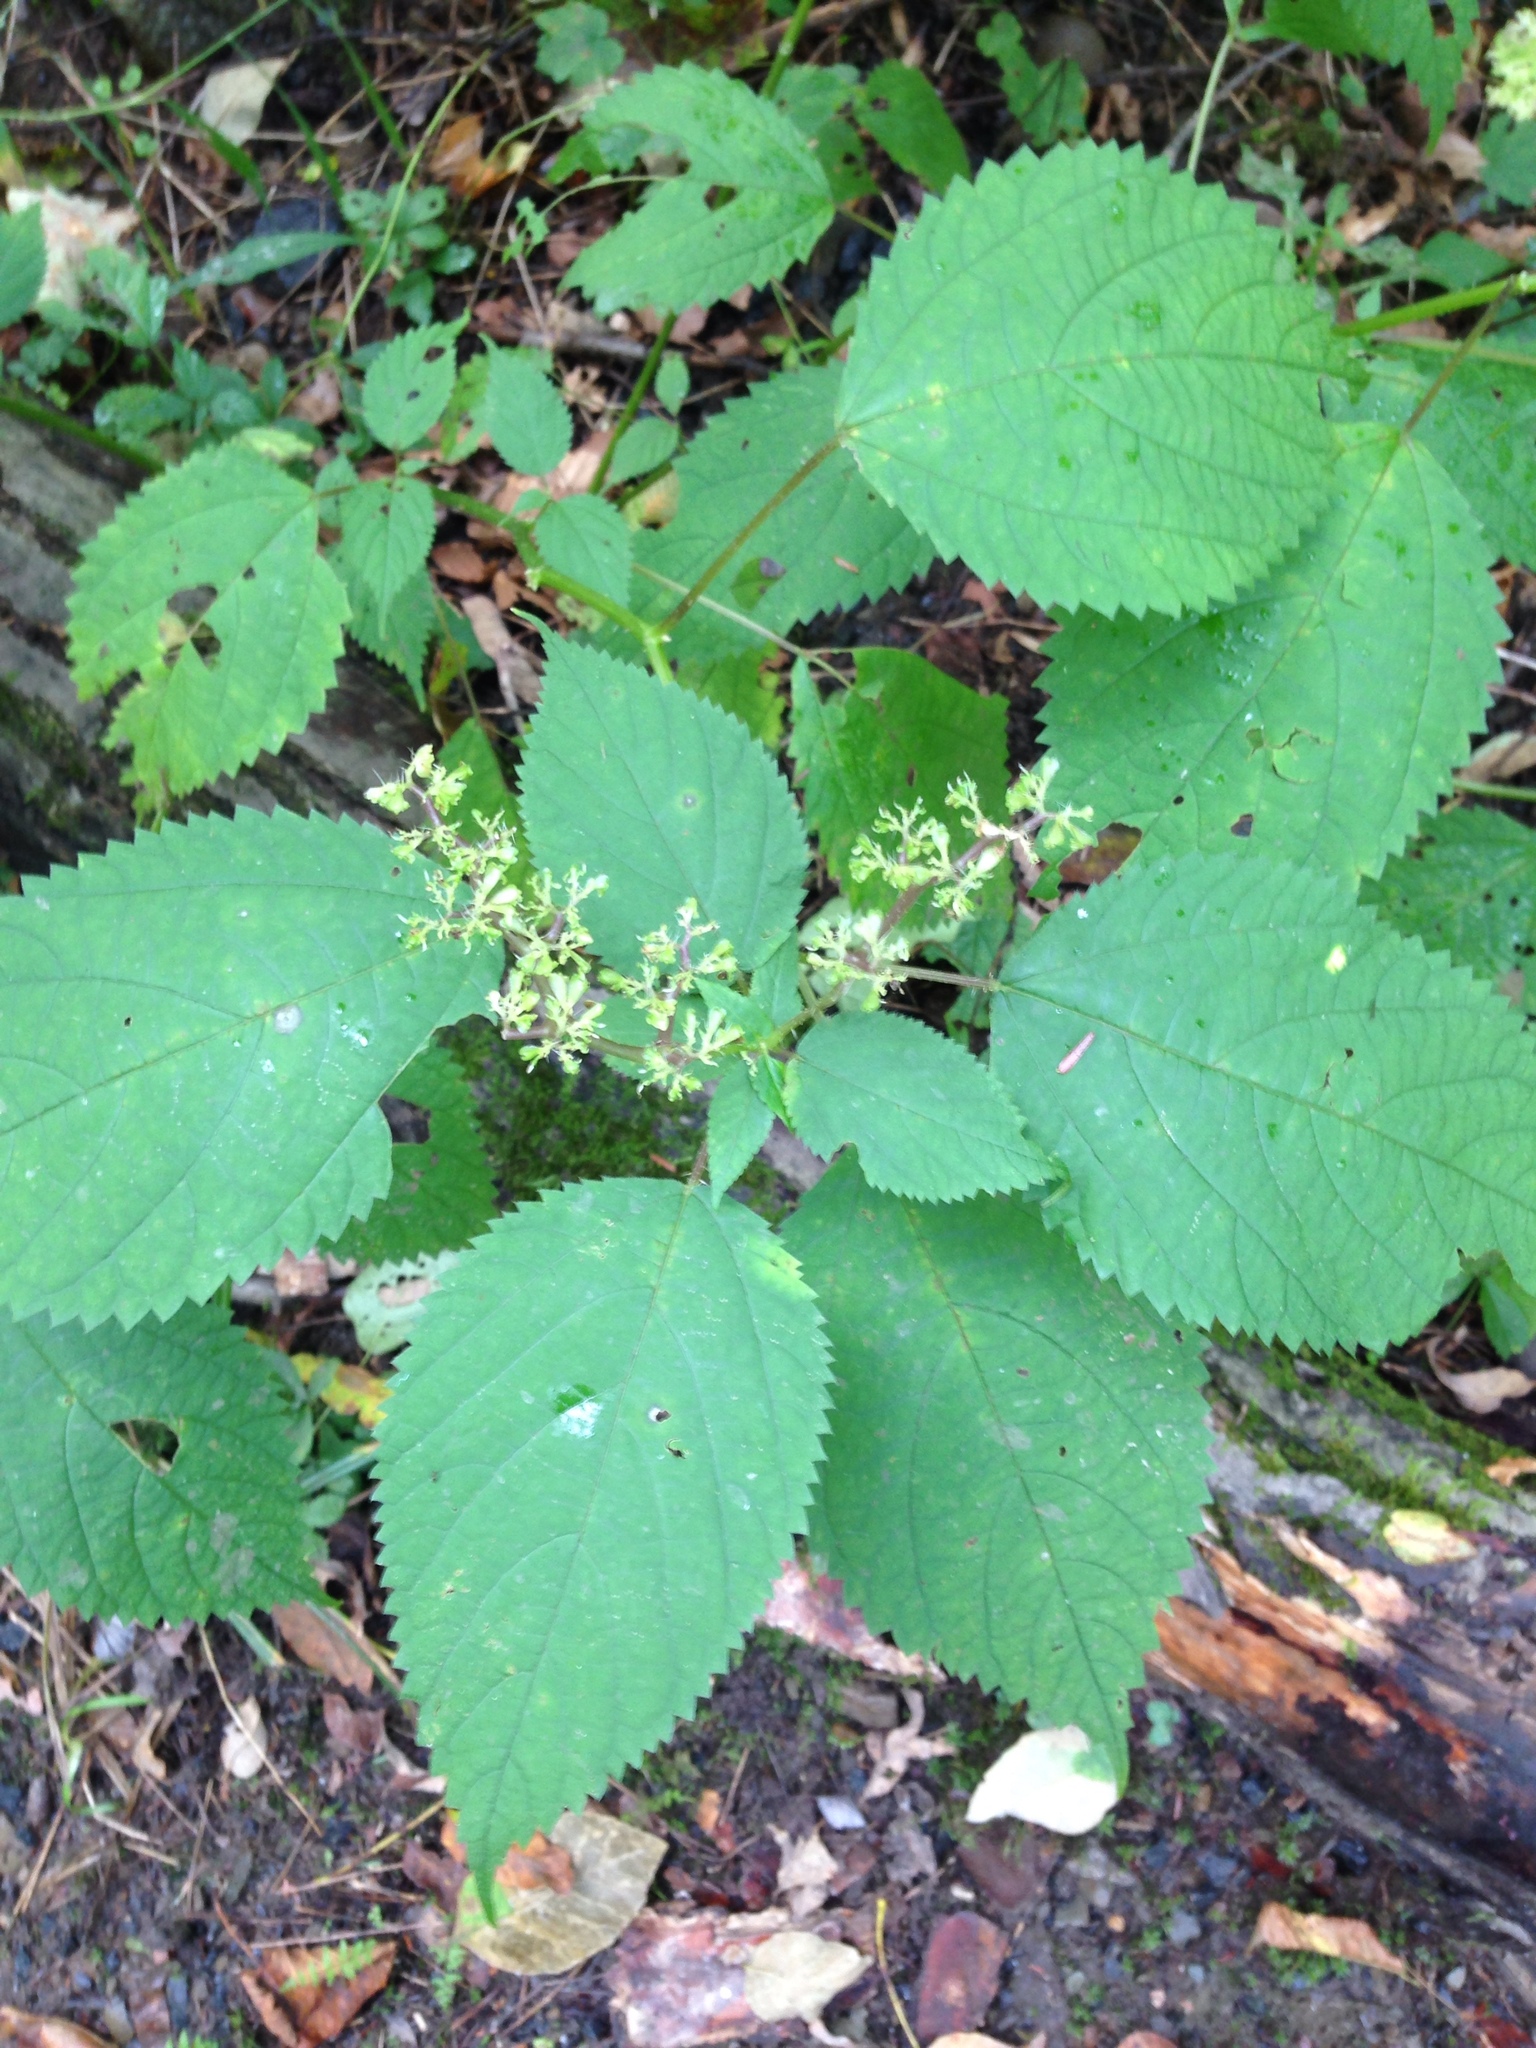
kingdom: Plantae
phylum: Tracheophyta
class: Magnoliopsida
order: Rosales
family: Urticaceae
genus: Laportea
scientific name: Laportea canadensis
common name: Canada nettle
